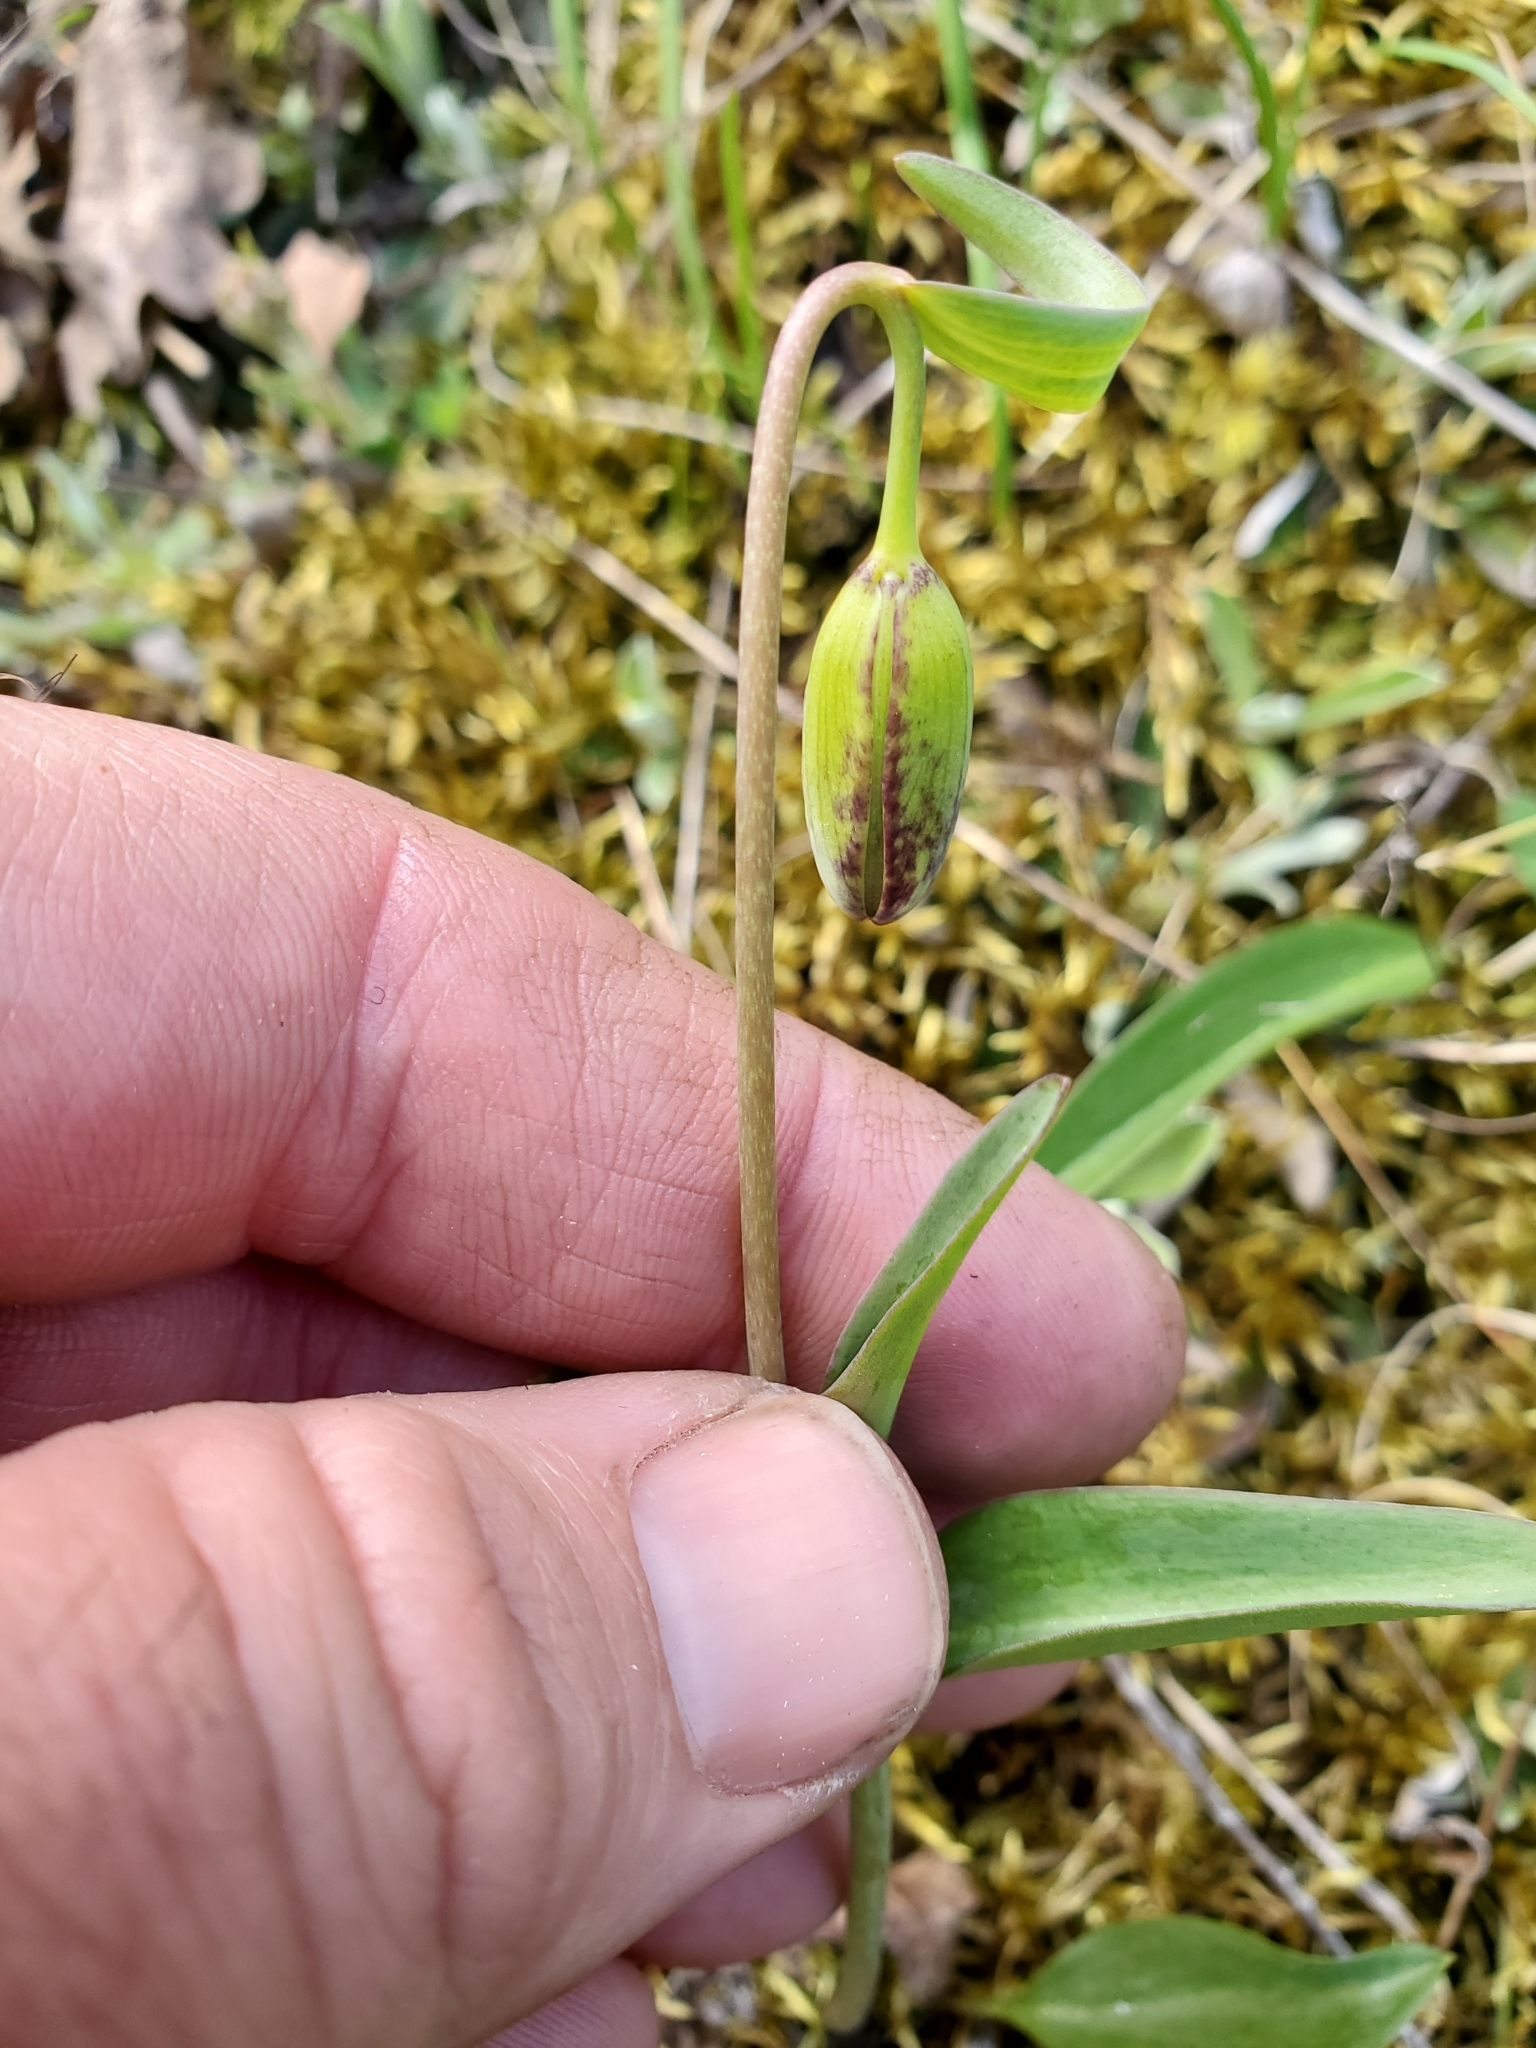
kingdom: Plantae
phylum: Tracheophyta
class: Liliopsida
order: Liliales
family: Liliaceae
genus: Fritillaria
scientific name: Fritillaria affinis
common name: Ojai fritillary
